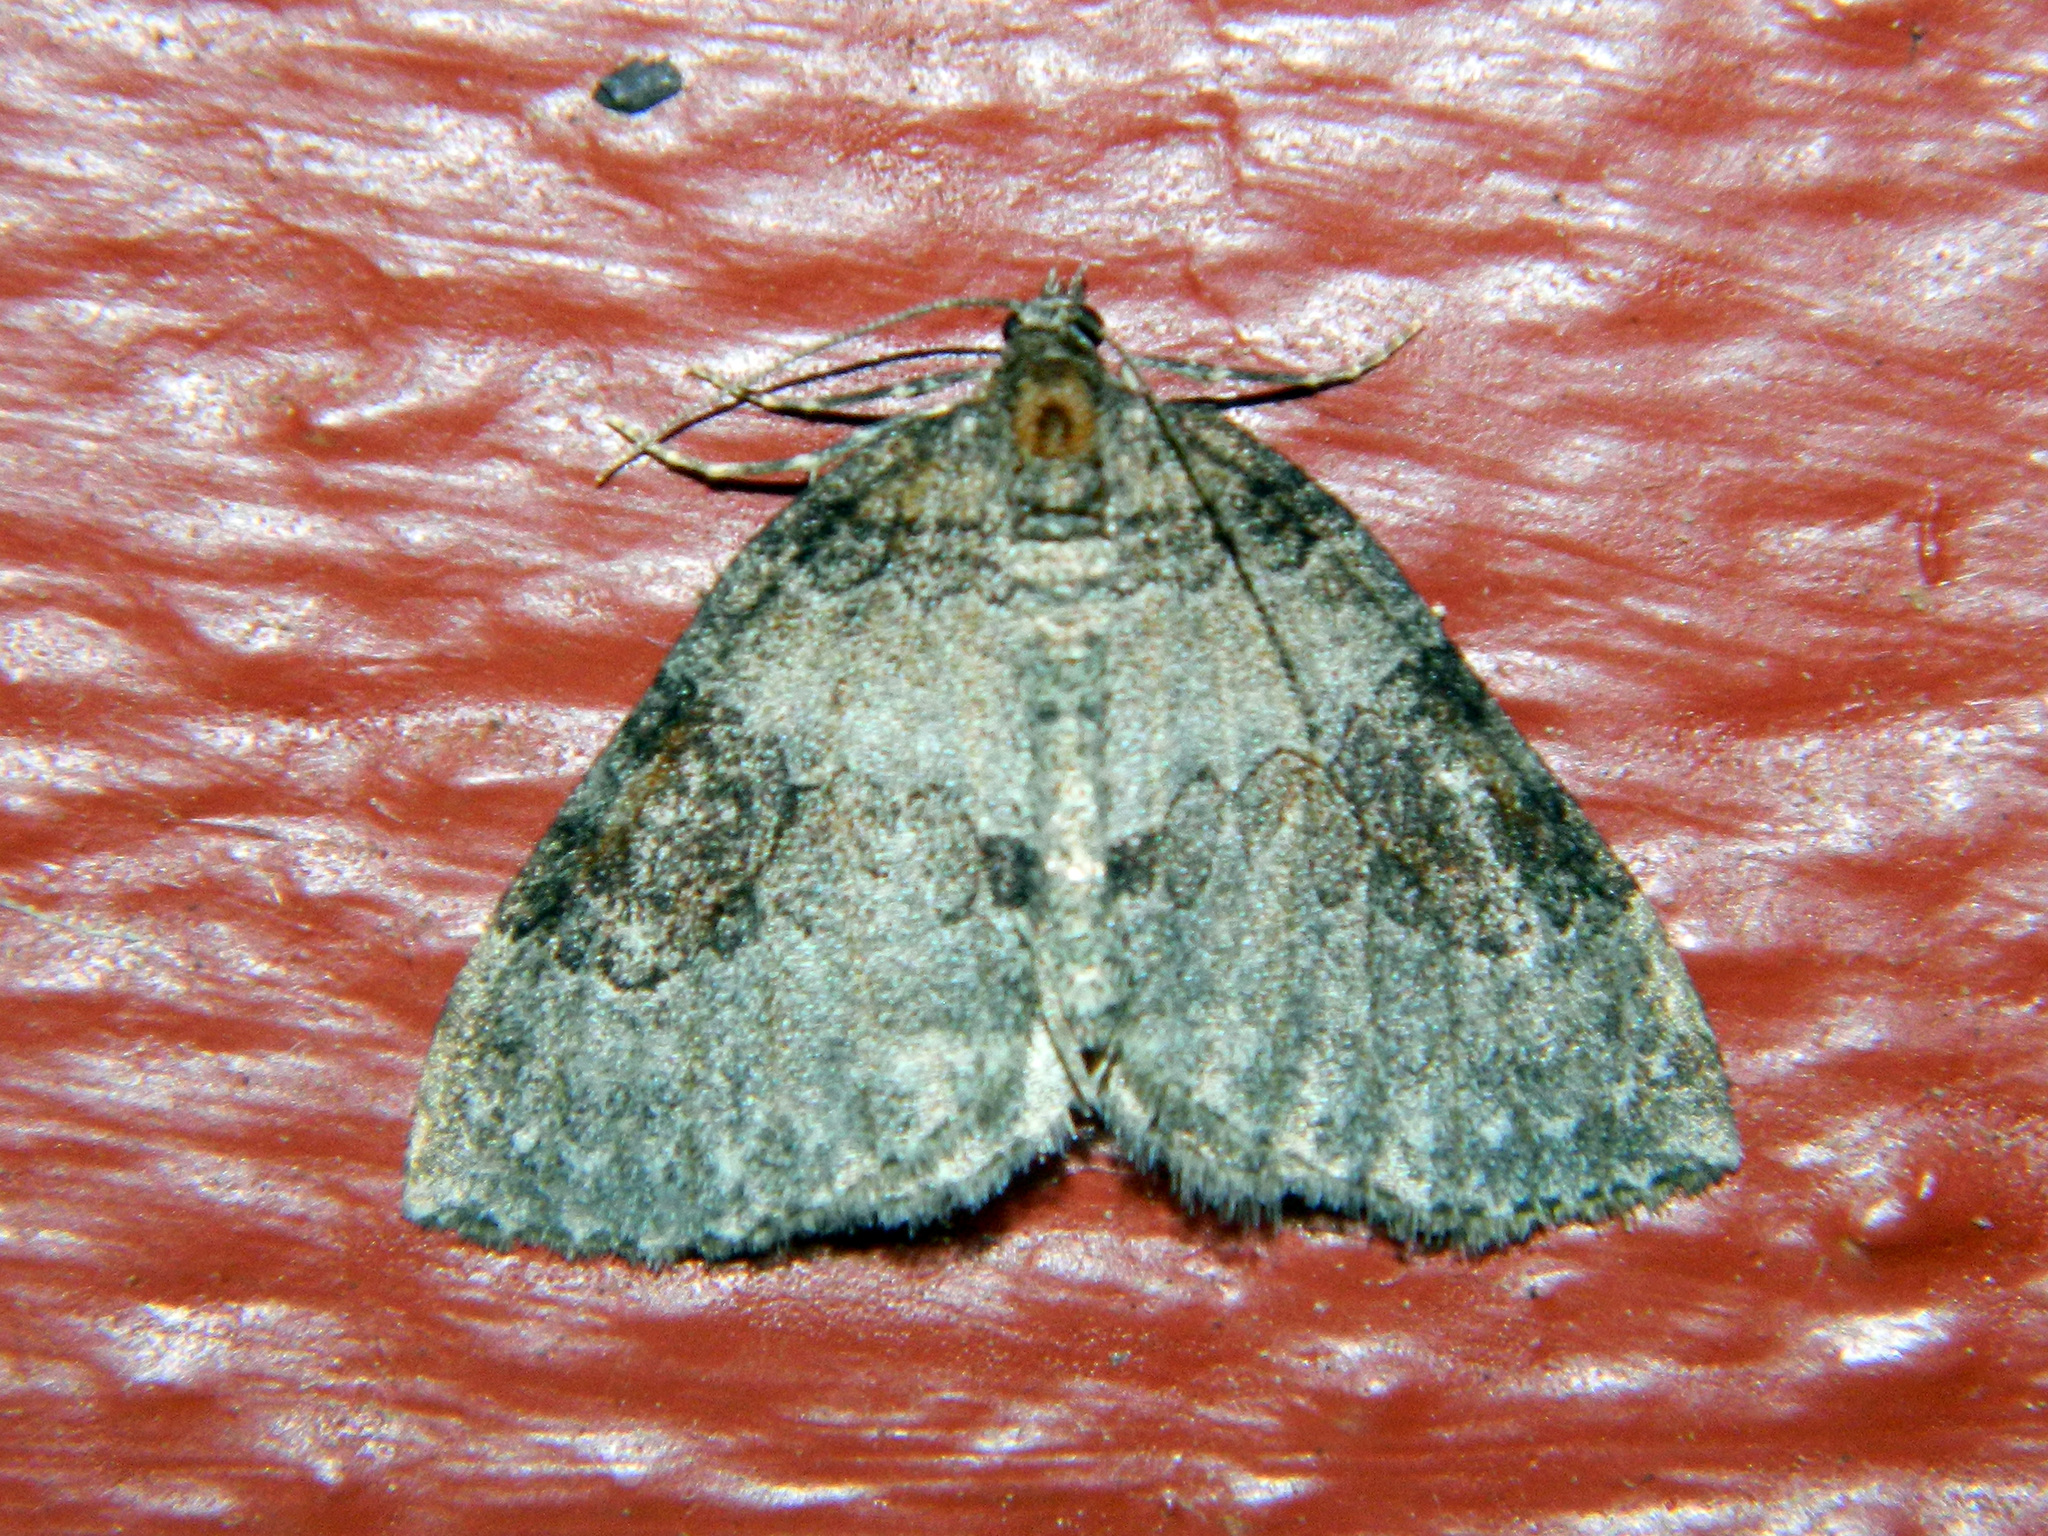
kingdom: Animalia
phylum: Arthropoda
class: Insecta
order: Lepidoptera
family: Geometridae
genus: Plemyria
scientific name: Plemyria georgii
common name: George's carpet moth
